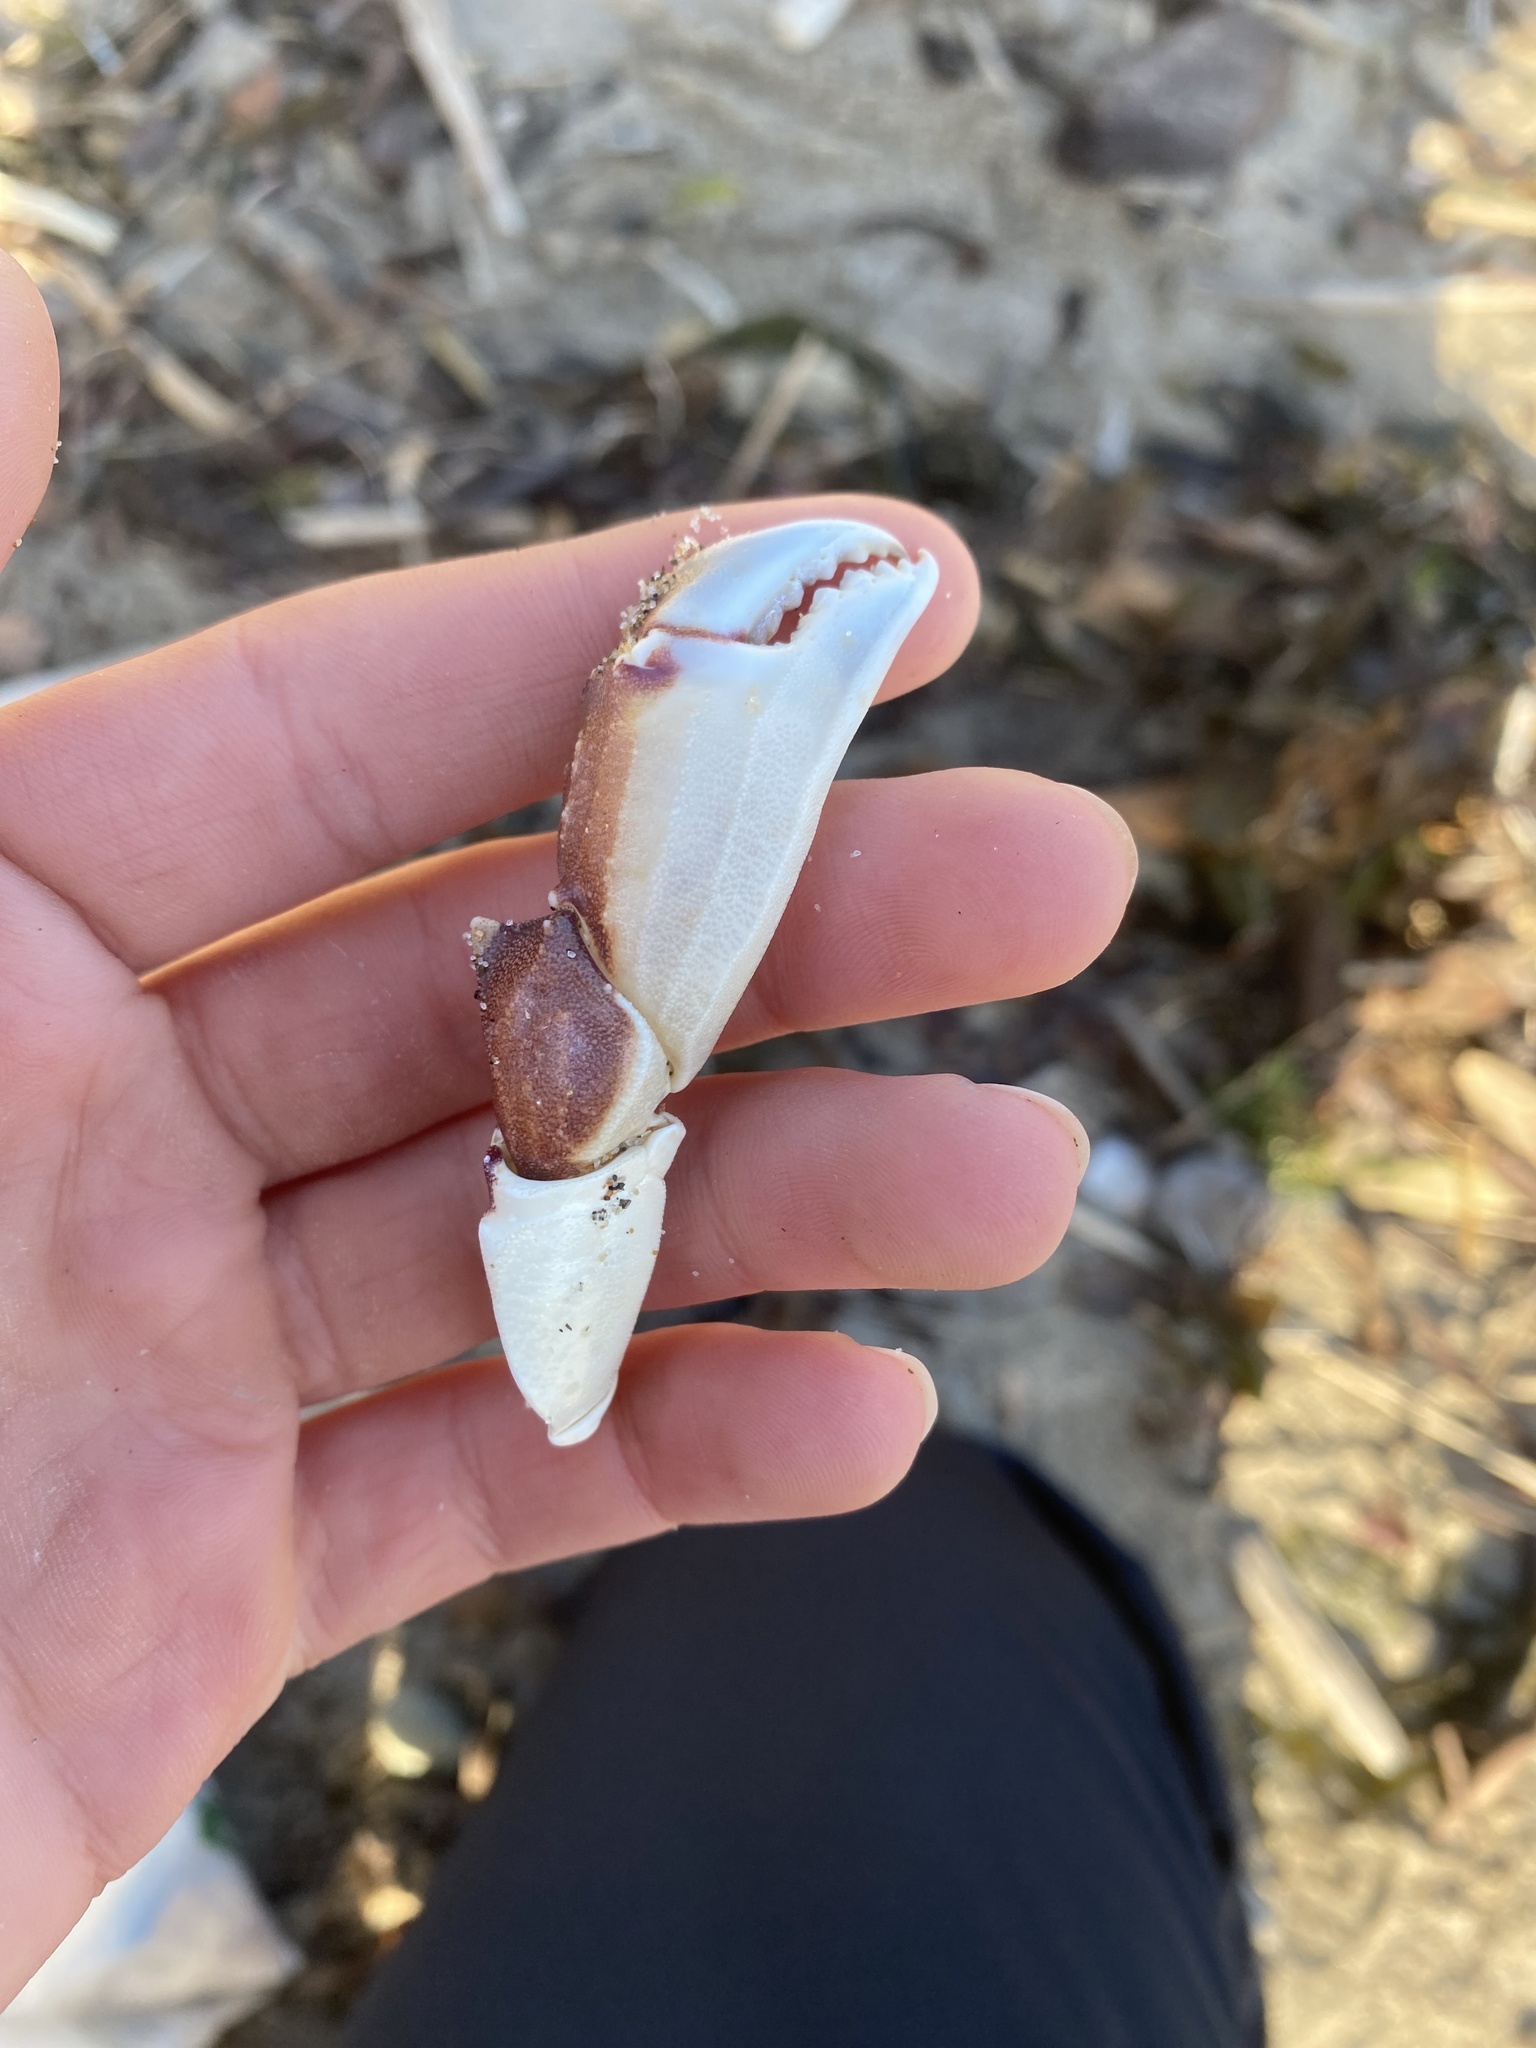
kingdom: Animalia
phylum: Arthropoda
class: Malacostraca
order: Decapoda
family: Cancridae
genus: Metacarcinus
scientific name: Metacarcinus gracilis
